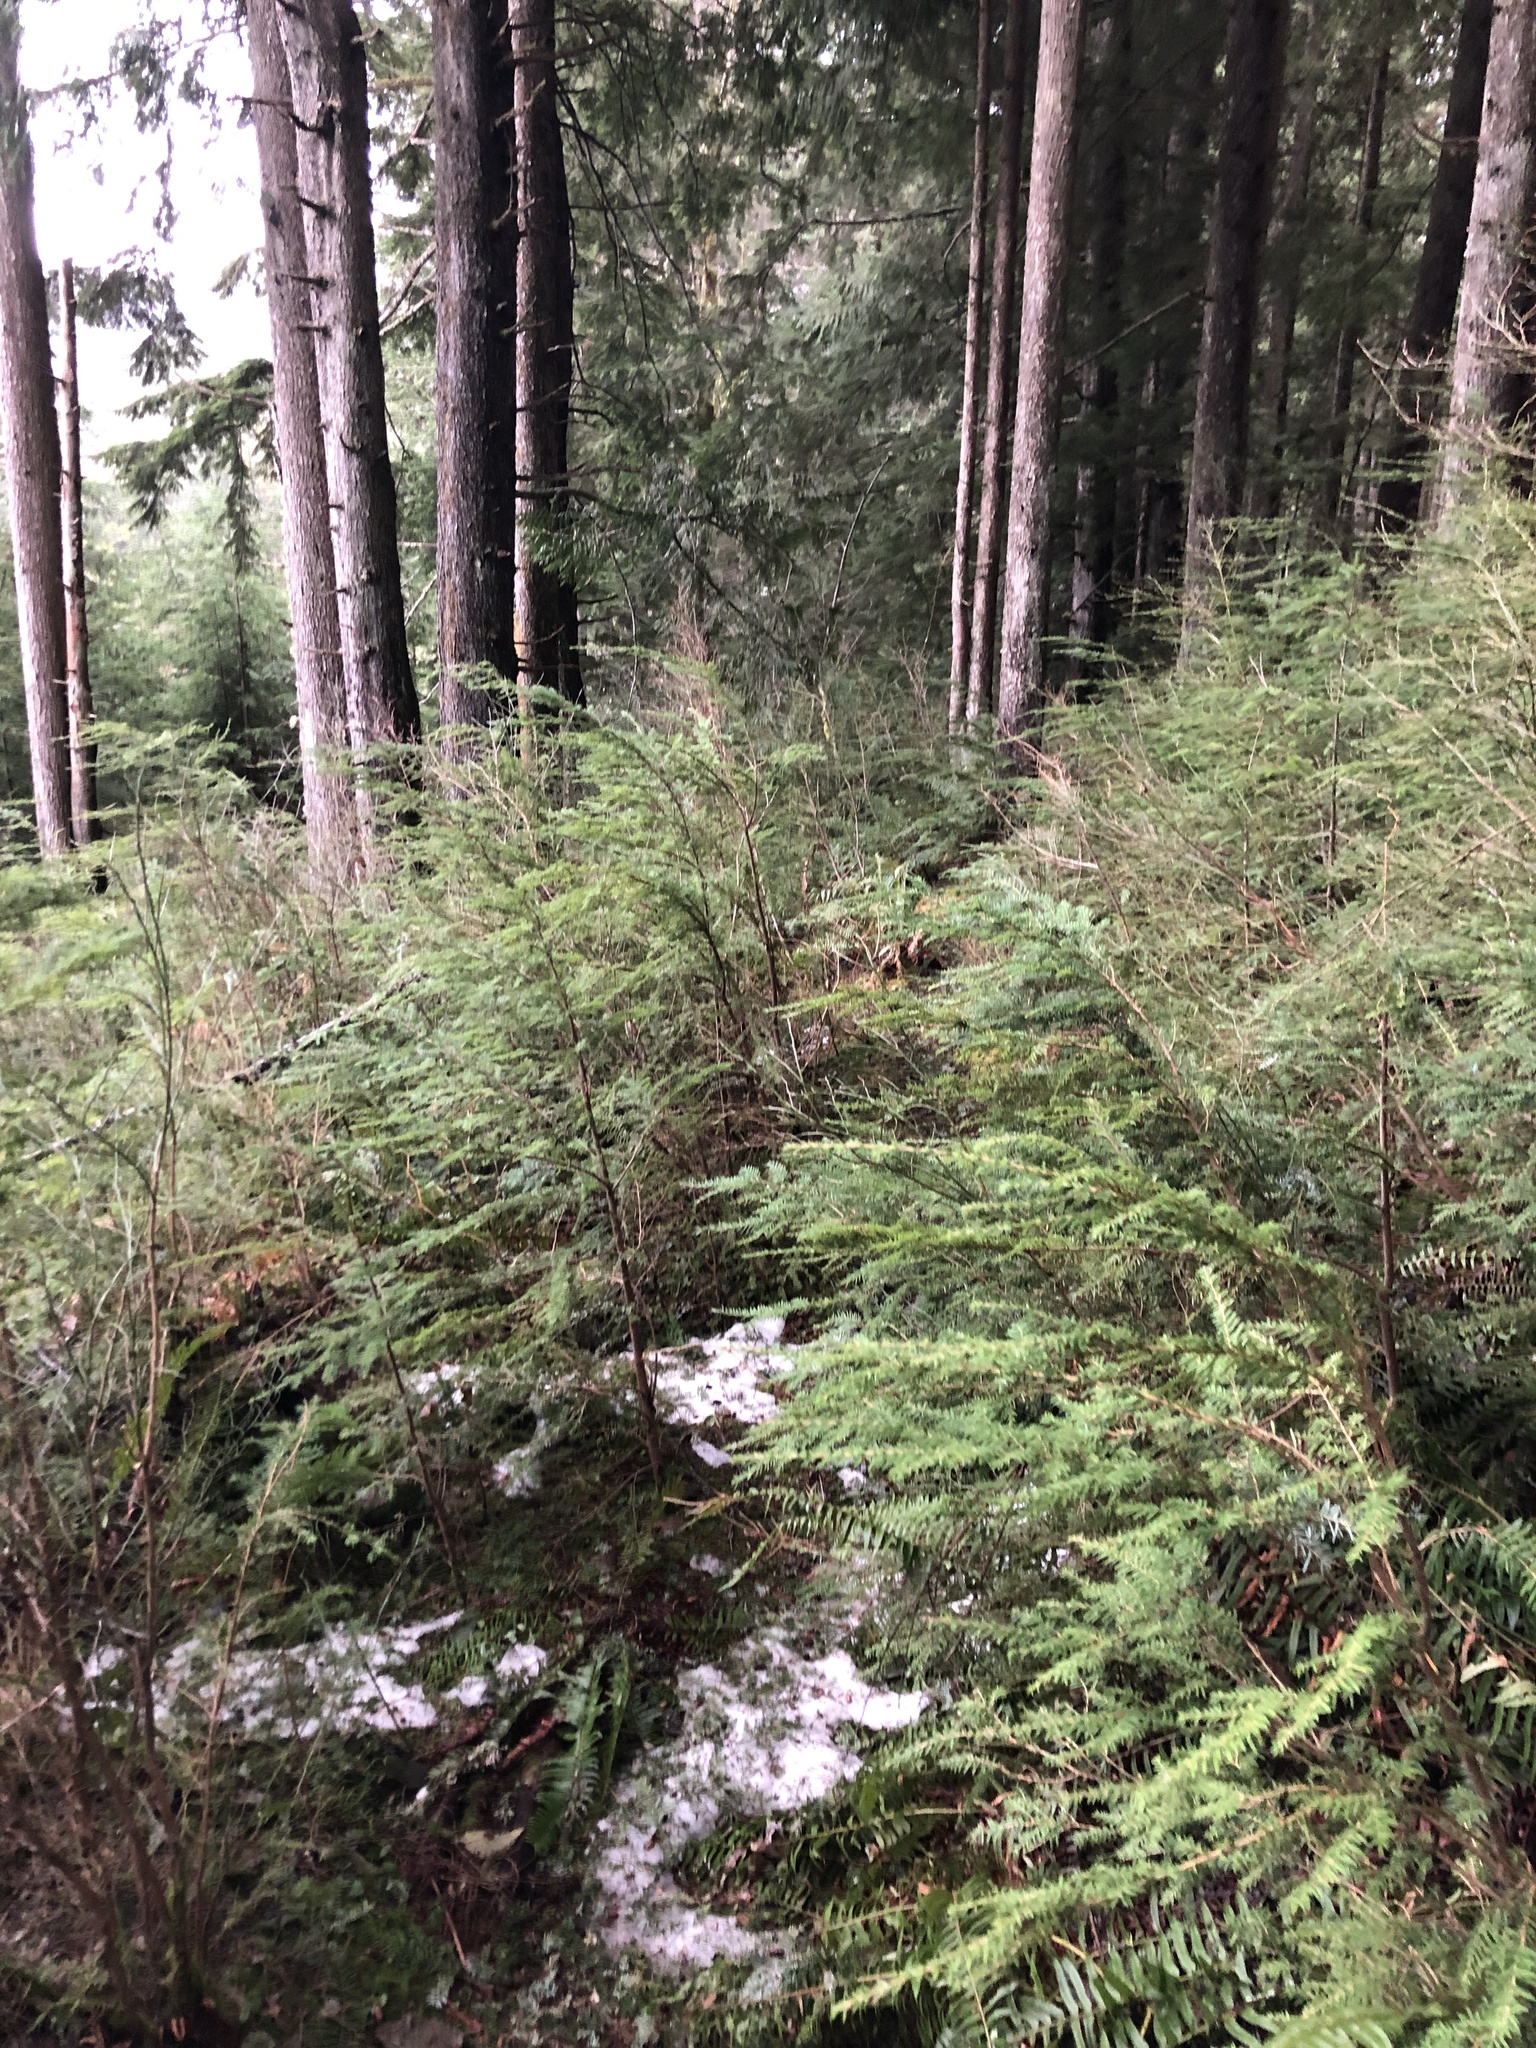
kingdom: Plantae
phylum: Tracheophyta
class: Pinopsida
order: Pinales
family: Pinaceae
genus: Tsuga
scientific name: Tsuga heterophylla
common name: Western hemlock
